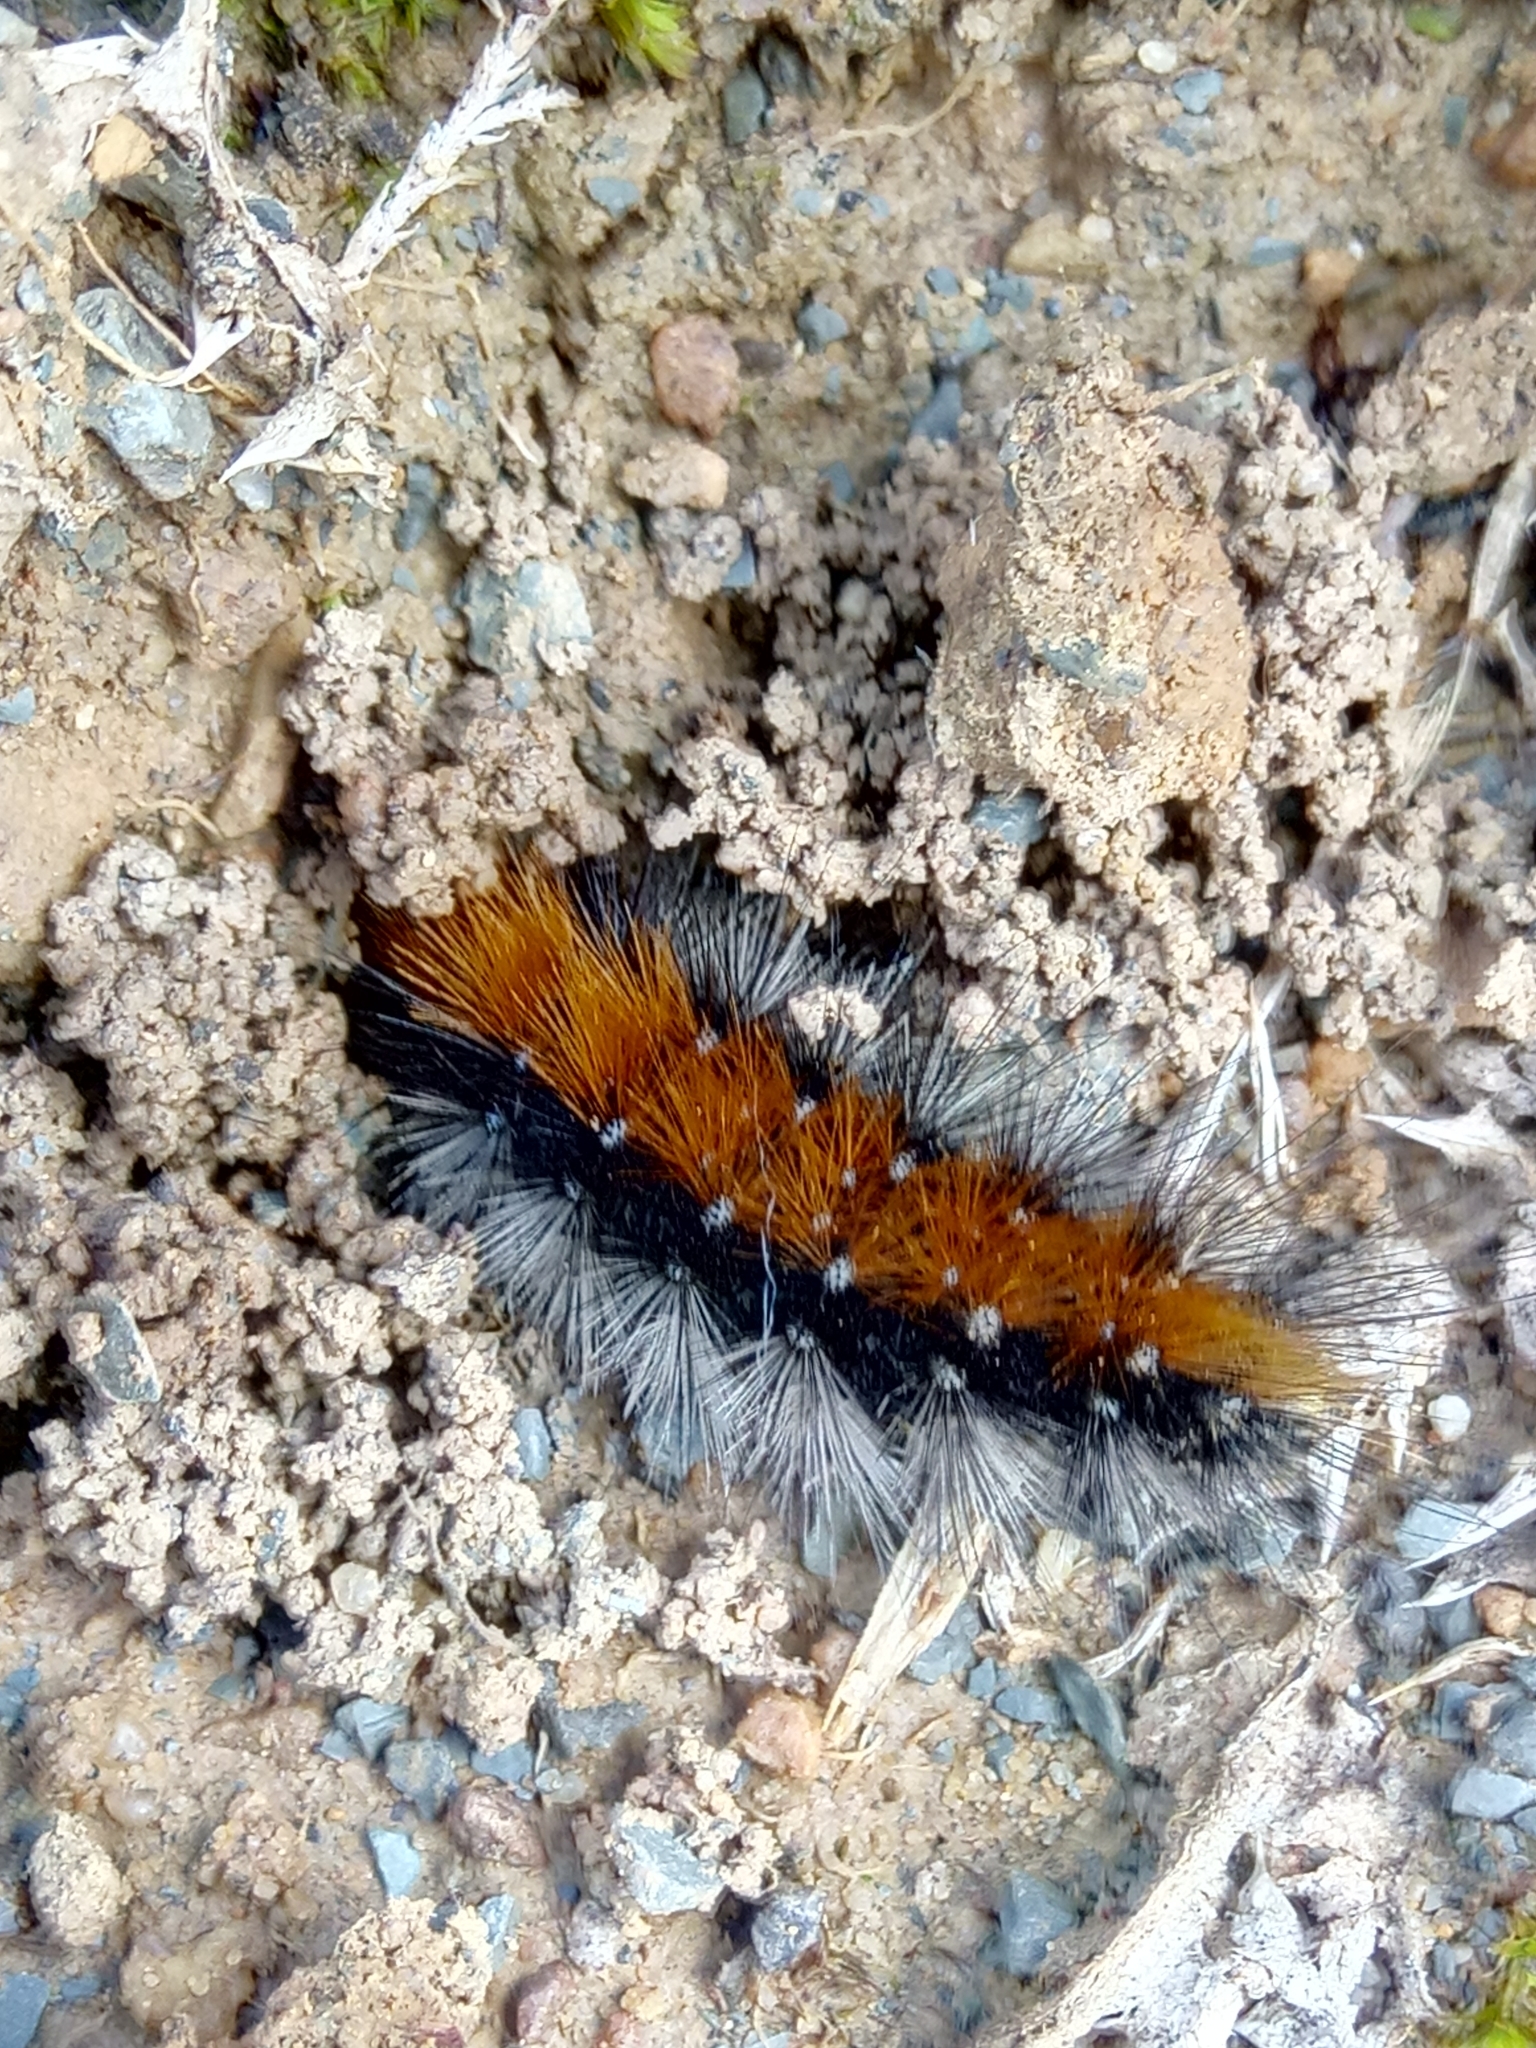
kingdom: Animalia
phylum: Arthropoda
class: Insecta
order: Lepidoptera
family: Erebidae
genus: Ocnogyna
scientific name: Ocnogyna boeticum
